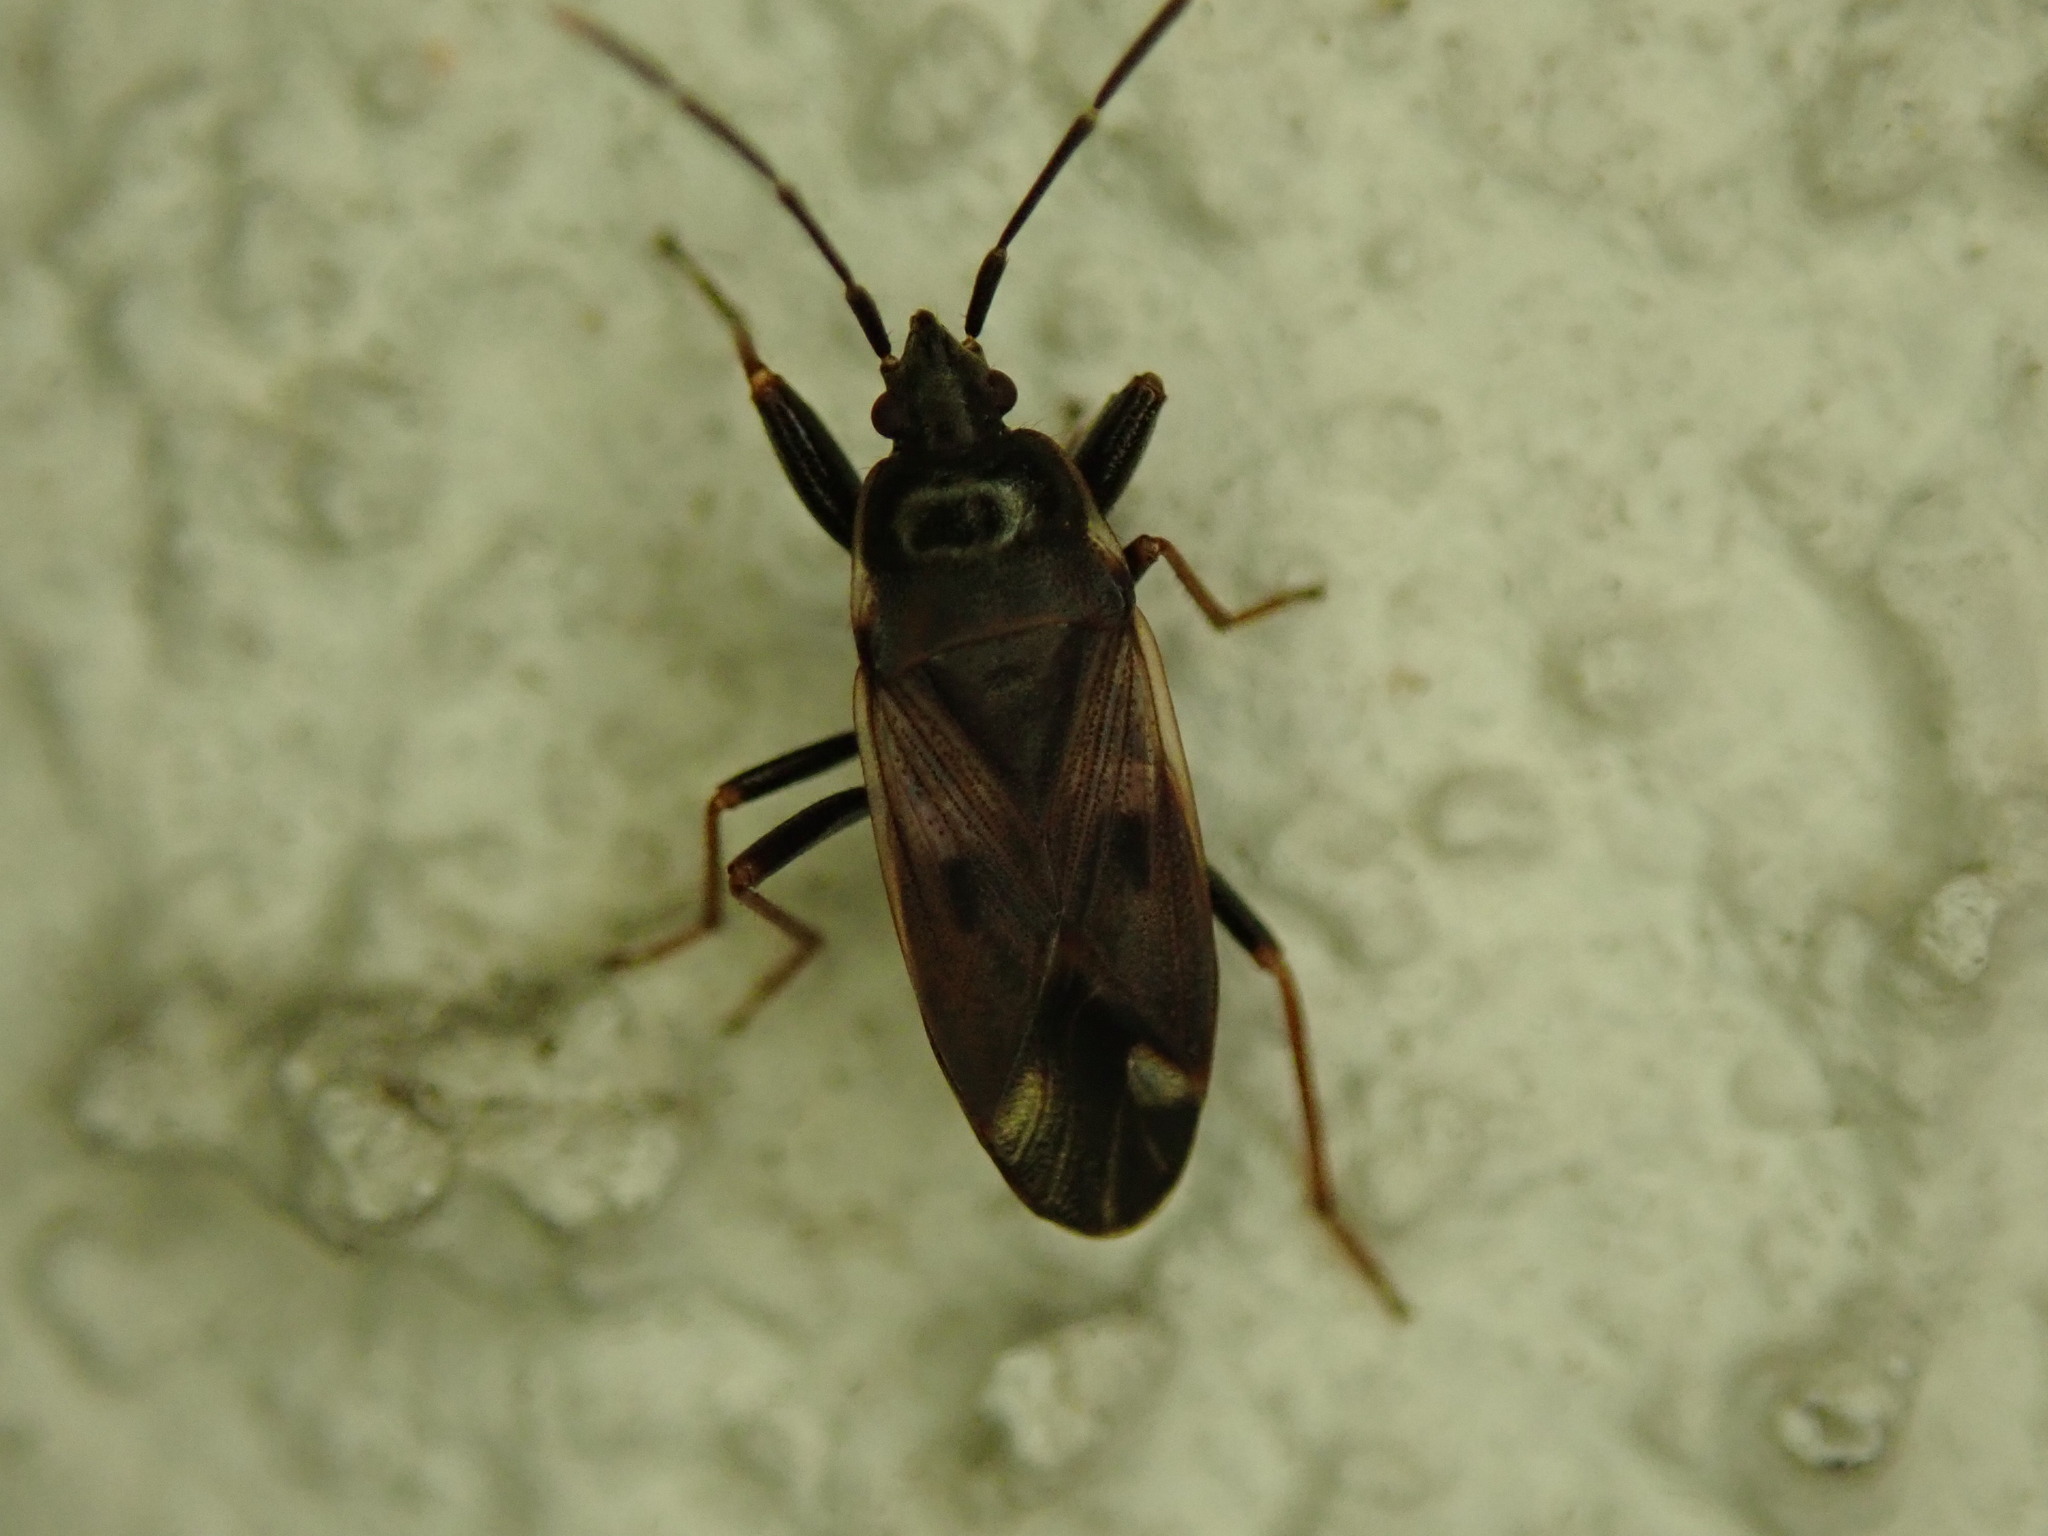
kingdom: Animalia
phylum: Arthropoda
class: Insecta
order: Hemiptera
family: Rhyparochromidae
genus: Eremocoris
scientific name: Eremocoris abietis
